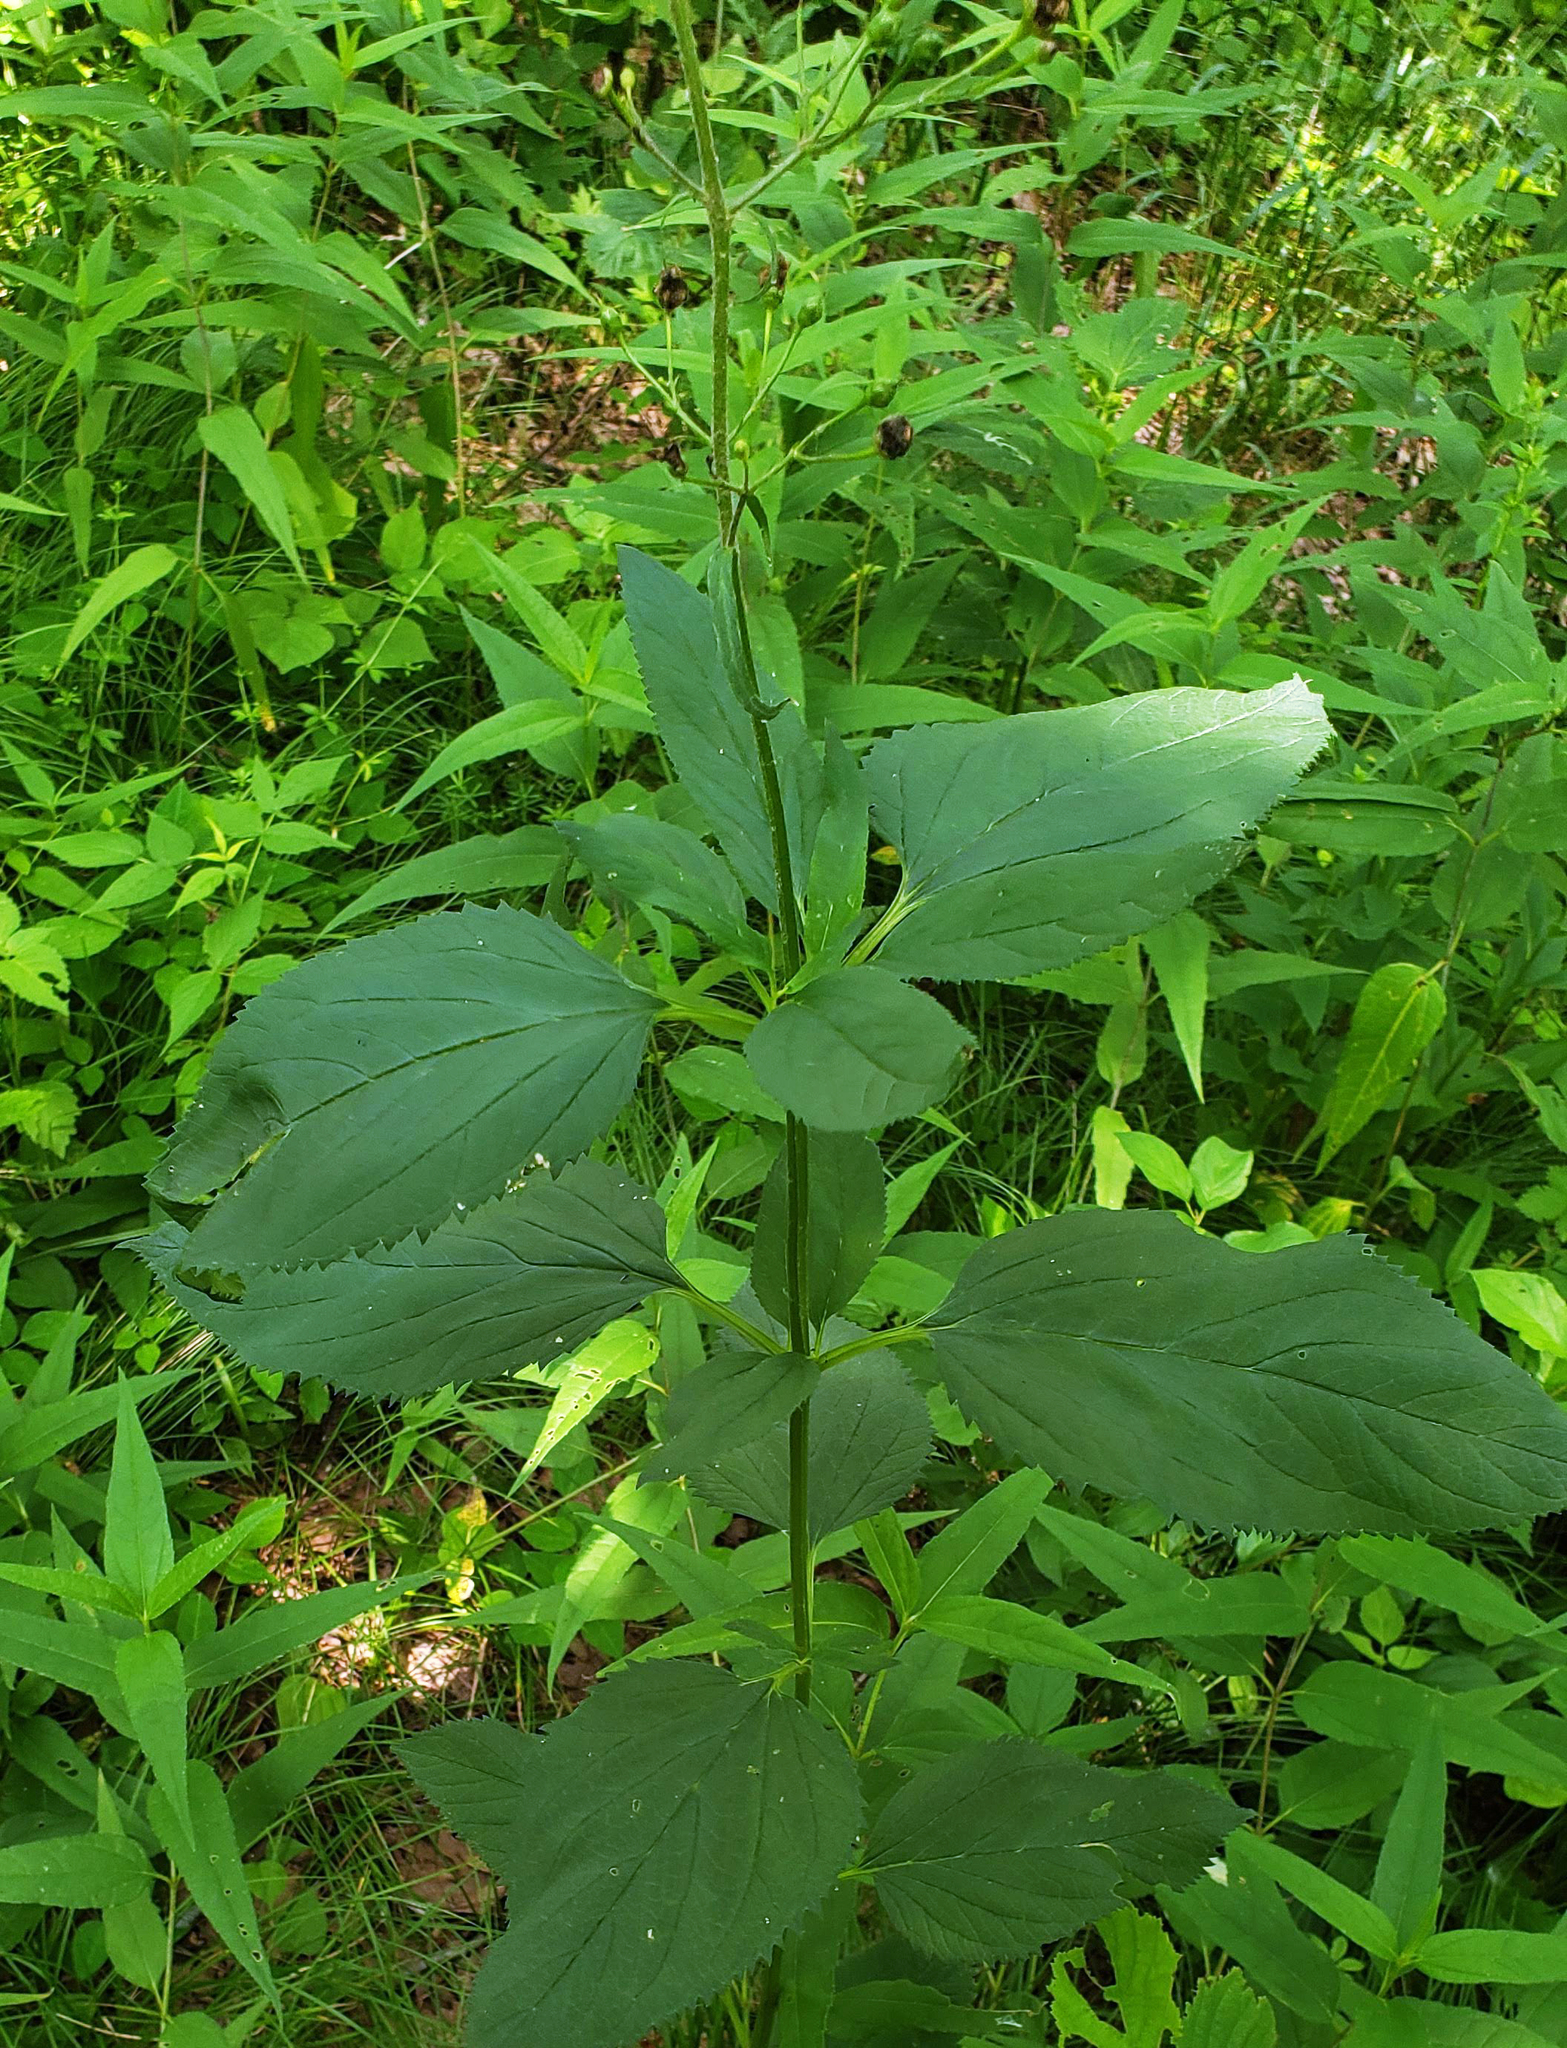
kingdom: Plantae
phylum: Tracheophyta
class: Magnoliopsida
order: Lamiales
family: Scrophulariaceae
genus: Scrophularia
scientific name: Scrophularia lanceolata
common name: American figwort
